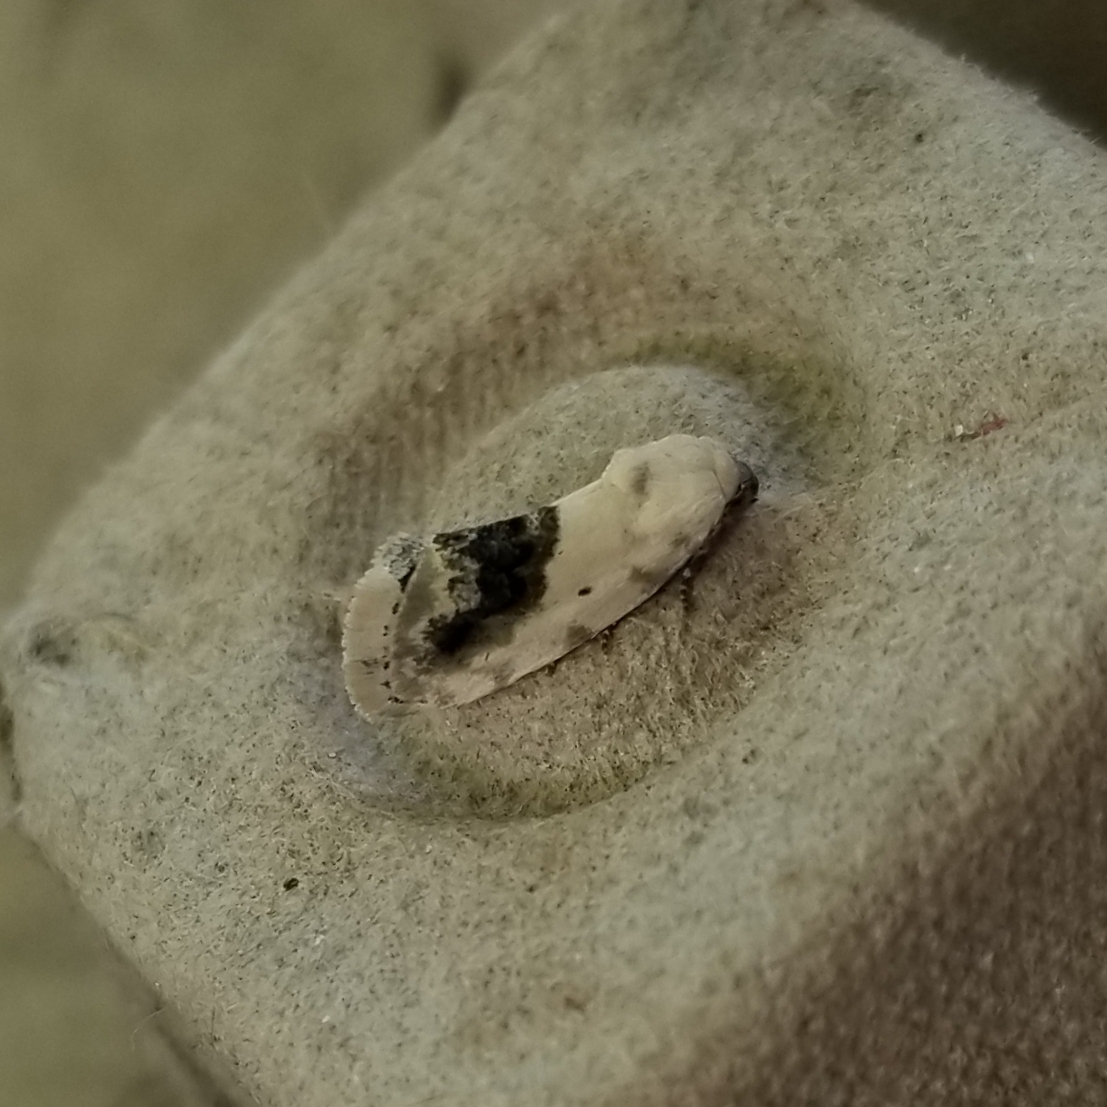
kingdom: Animalia
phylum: Arthropoda
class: Insecta
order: Lepidoptera
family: Noctuidae
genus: Acontia
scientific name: Acontia erastrioides
